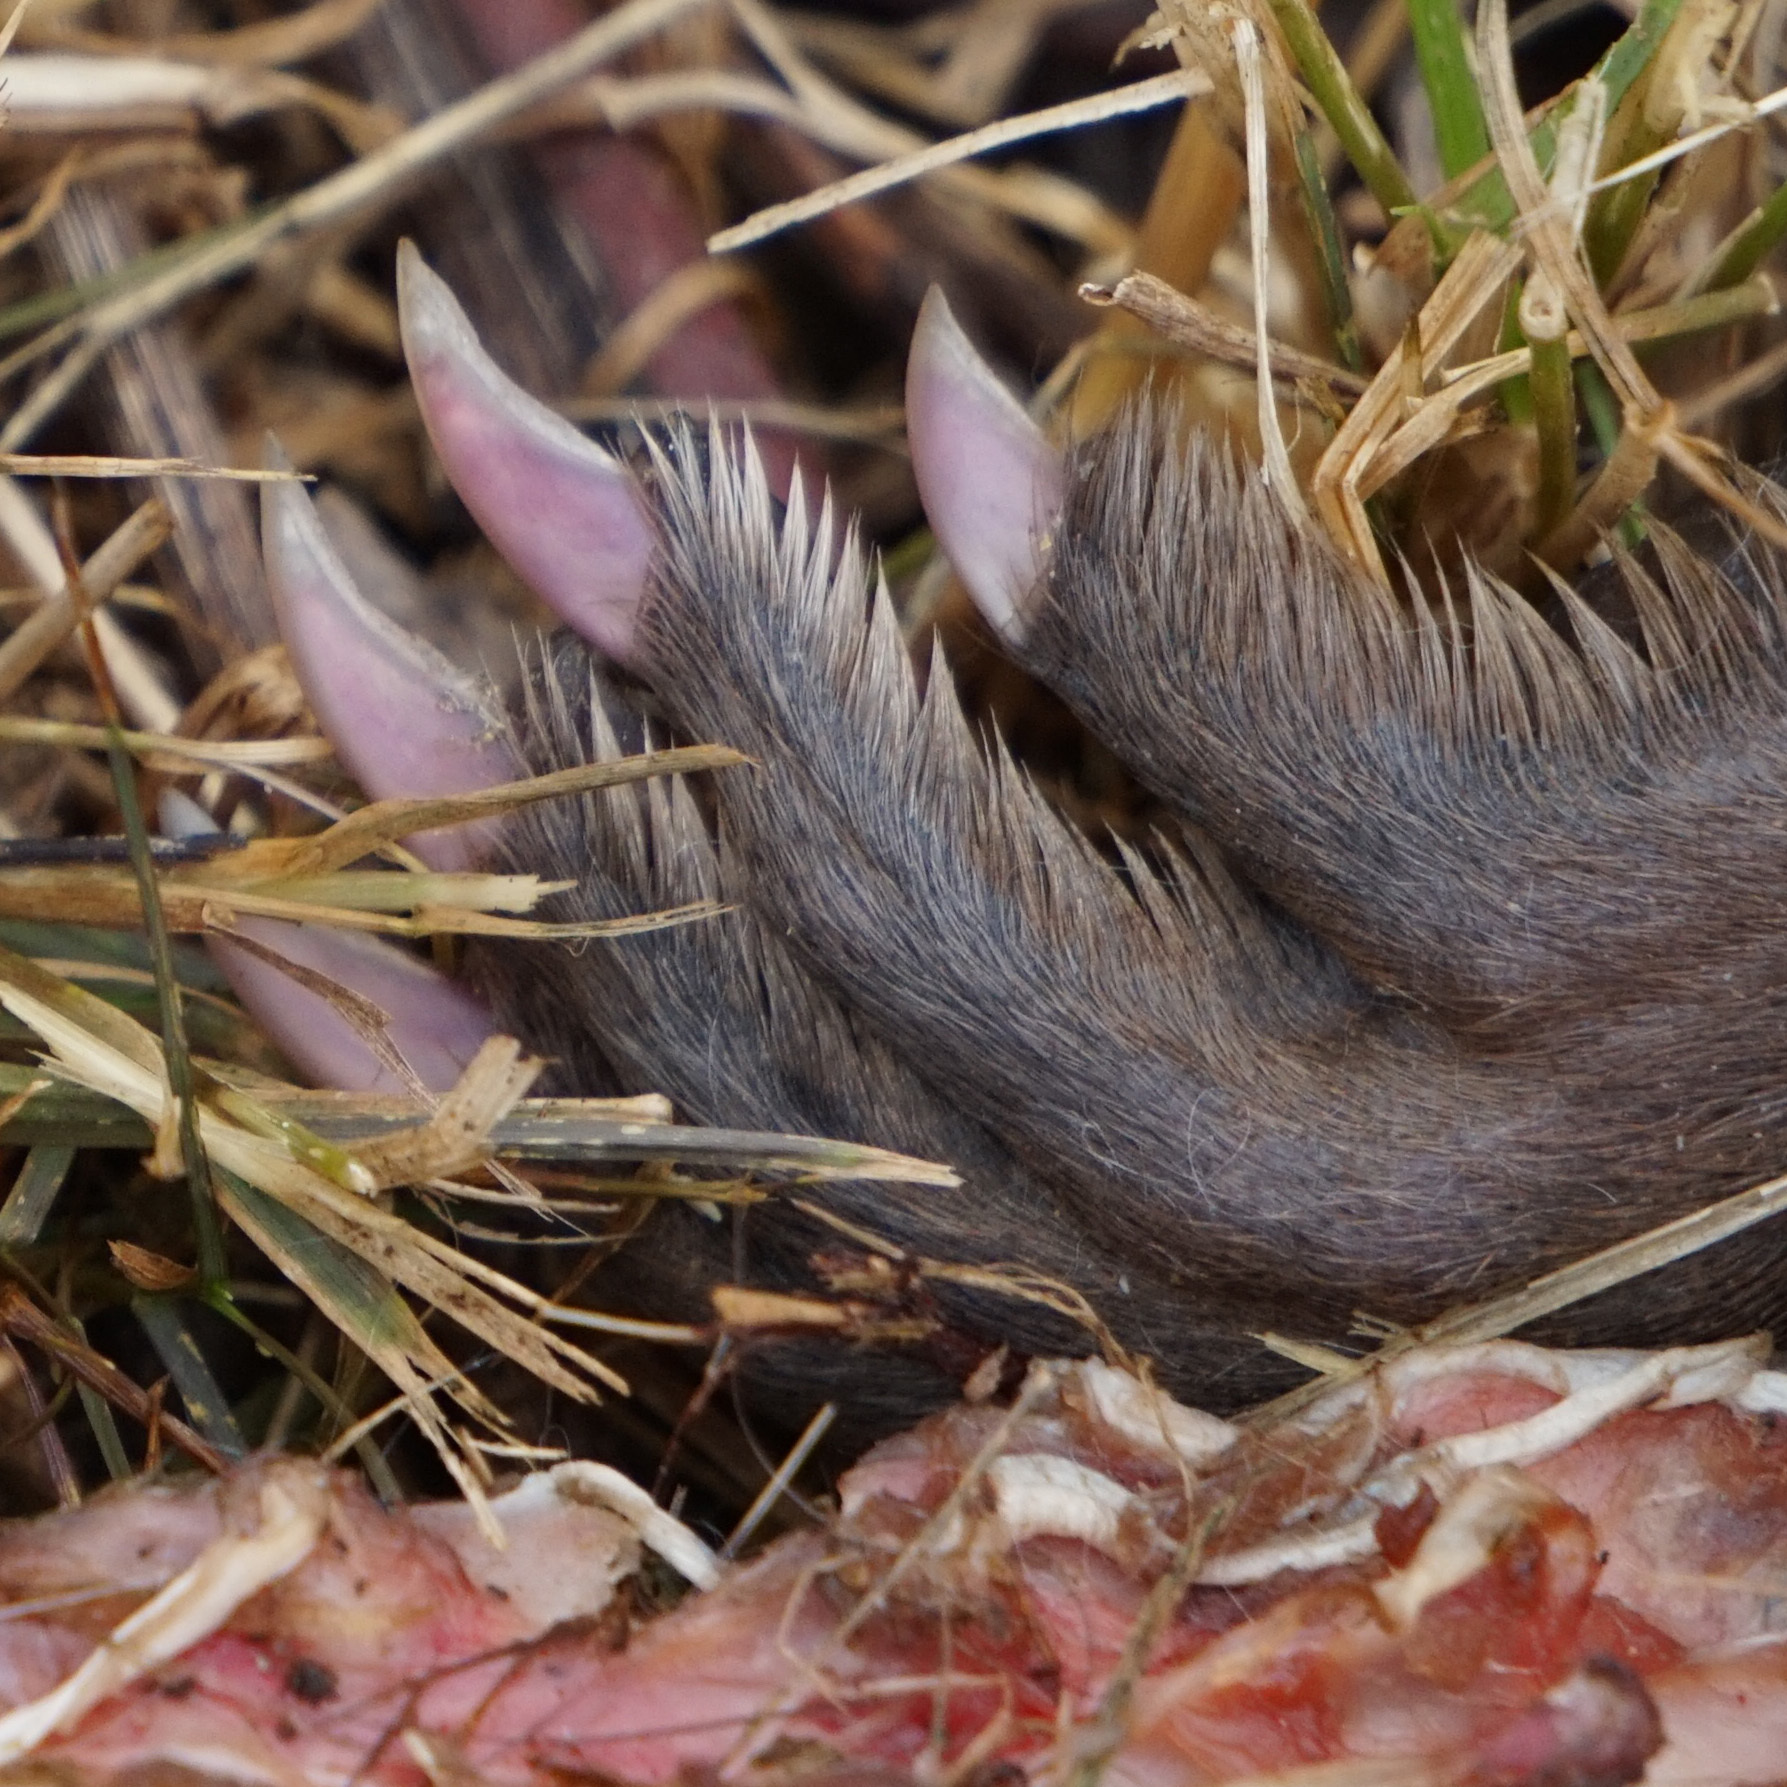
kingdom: Animalia
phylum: Chordata
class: Mammalia
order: Rodentia
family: Cricetidae
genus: Ondatra
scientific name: Ondatra zibethicus
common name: Muskrat
